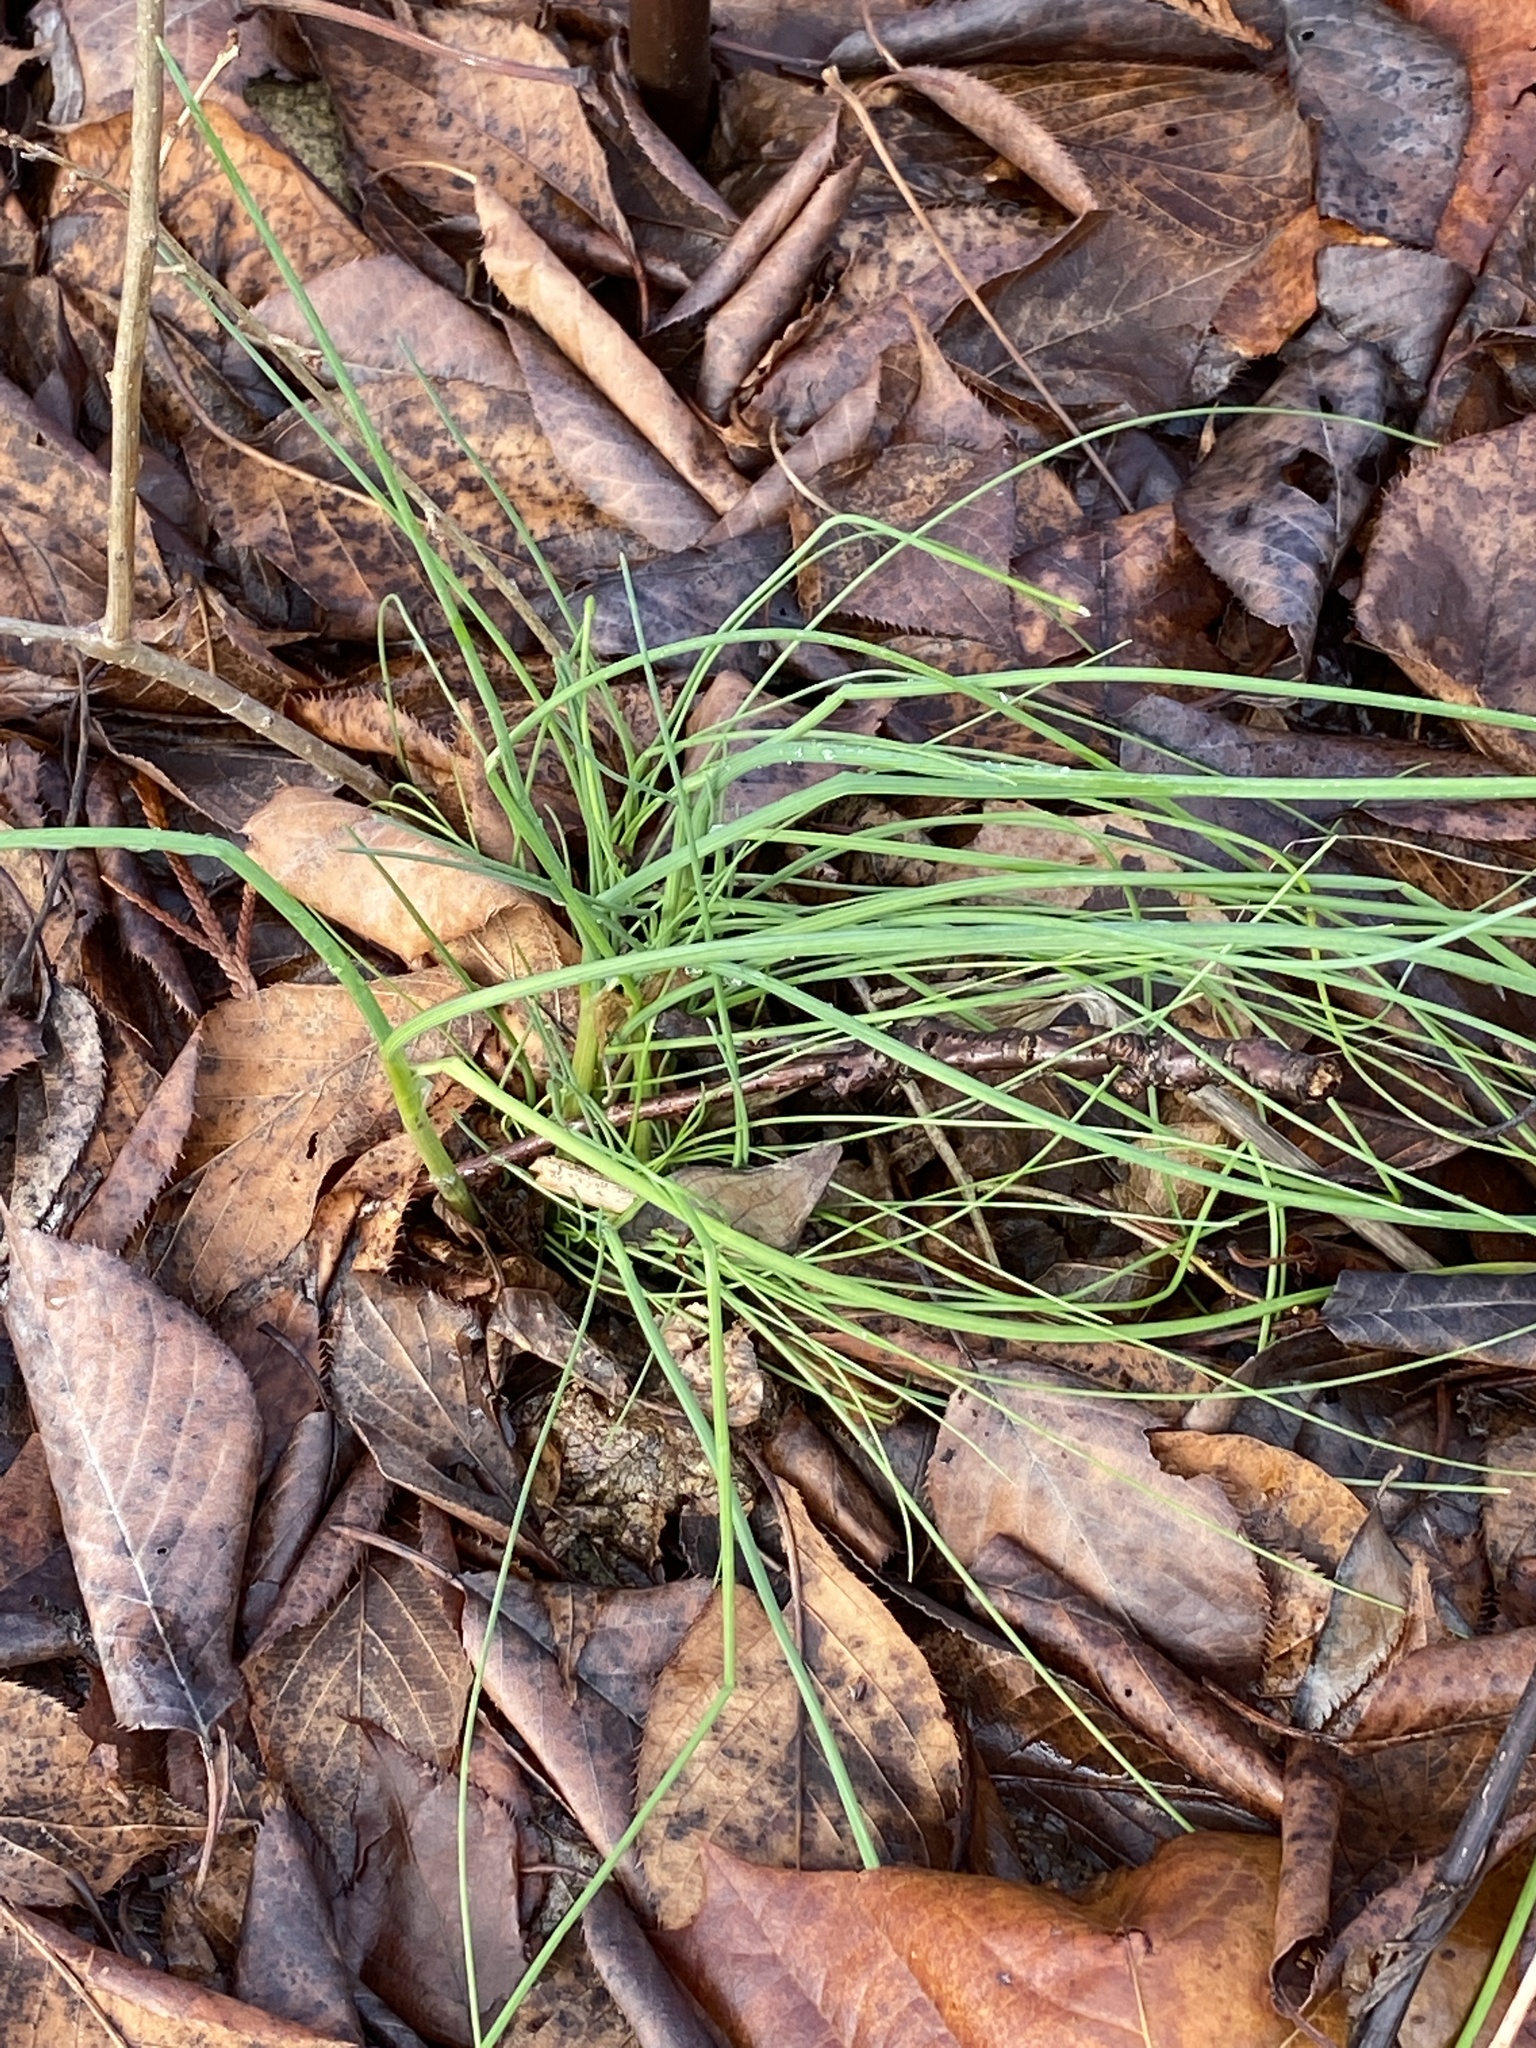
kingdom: Plantae
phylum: Tracheophyta
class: Liliopsida
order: Asparagales
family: Amaryllidaceae
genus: Allium
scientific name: Allium vineale
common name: Crow garlic
